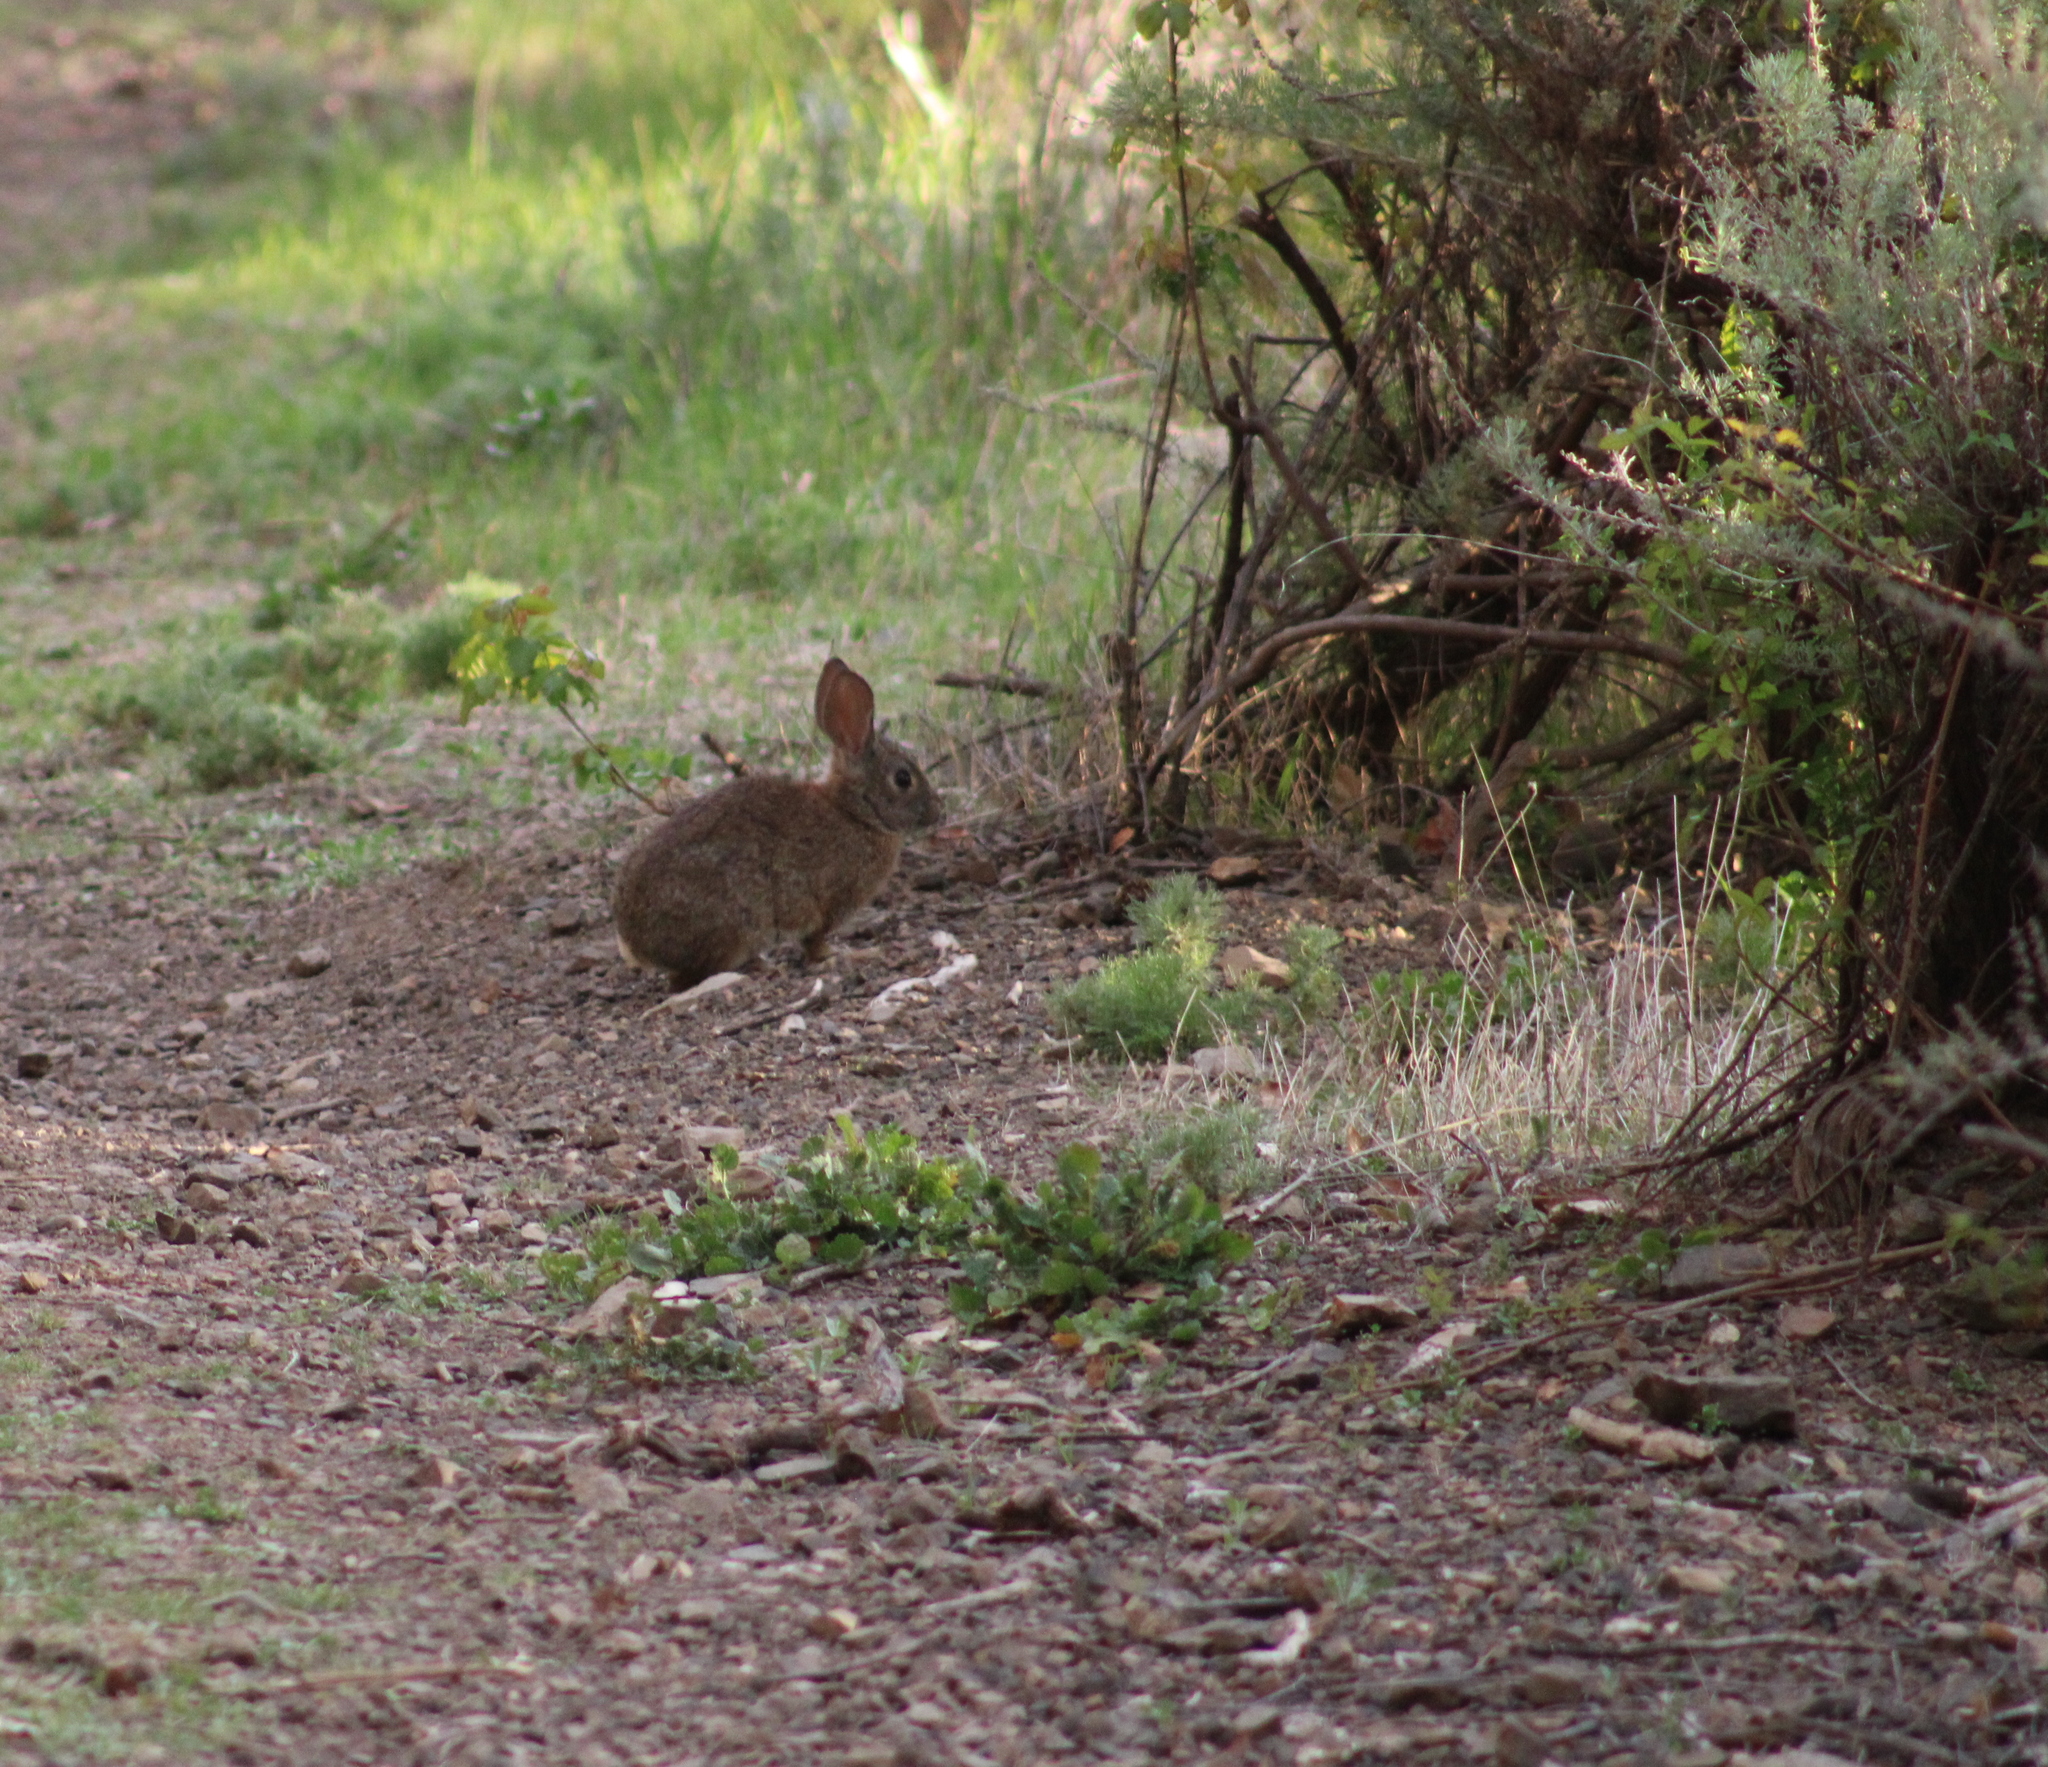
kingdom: Animalia
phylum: Chordata
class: Mammalia
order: Lagomorpha
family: Leporidae
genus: Sylvilagus
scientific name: Sylvilagus bachmani
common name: Brush rabbit
